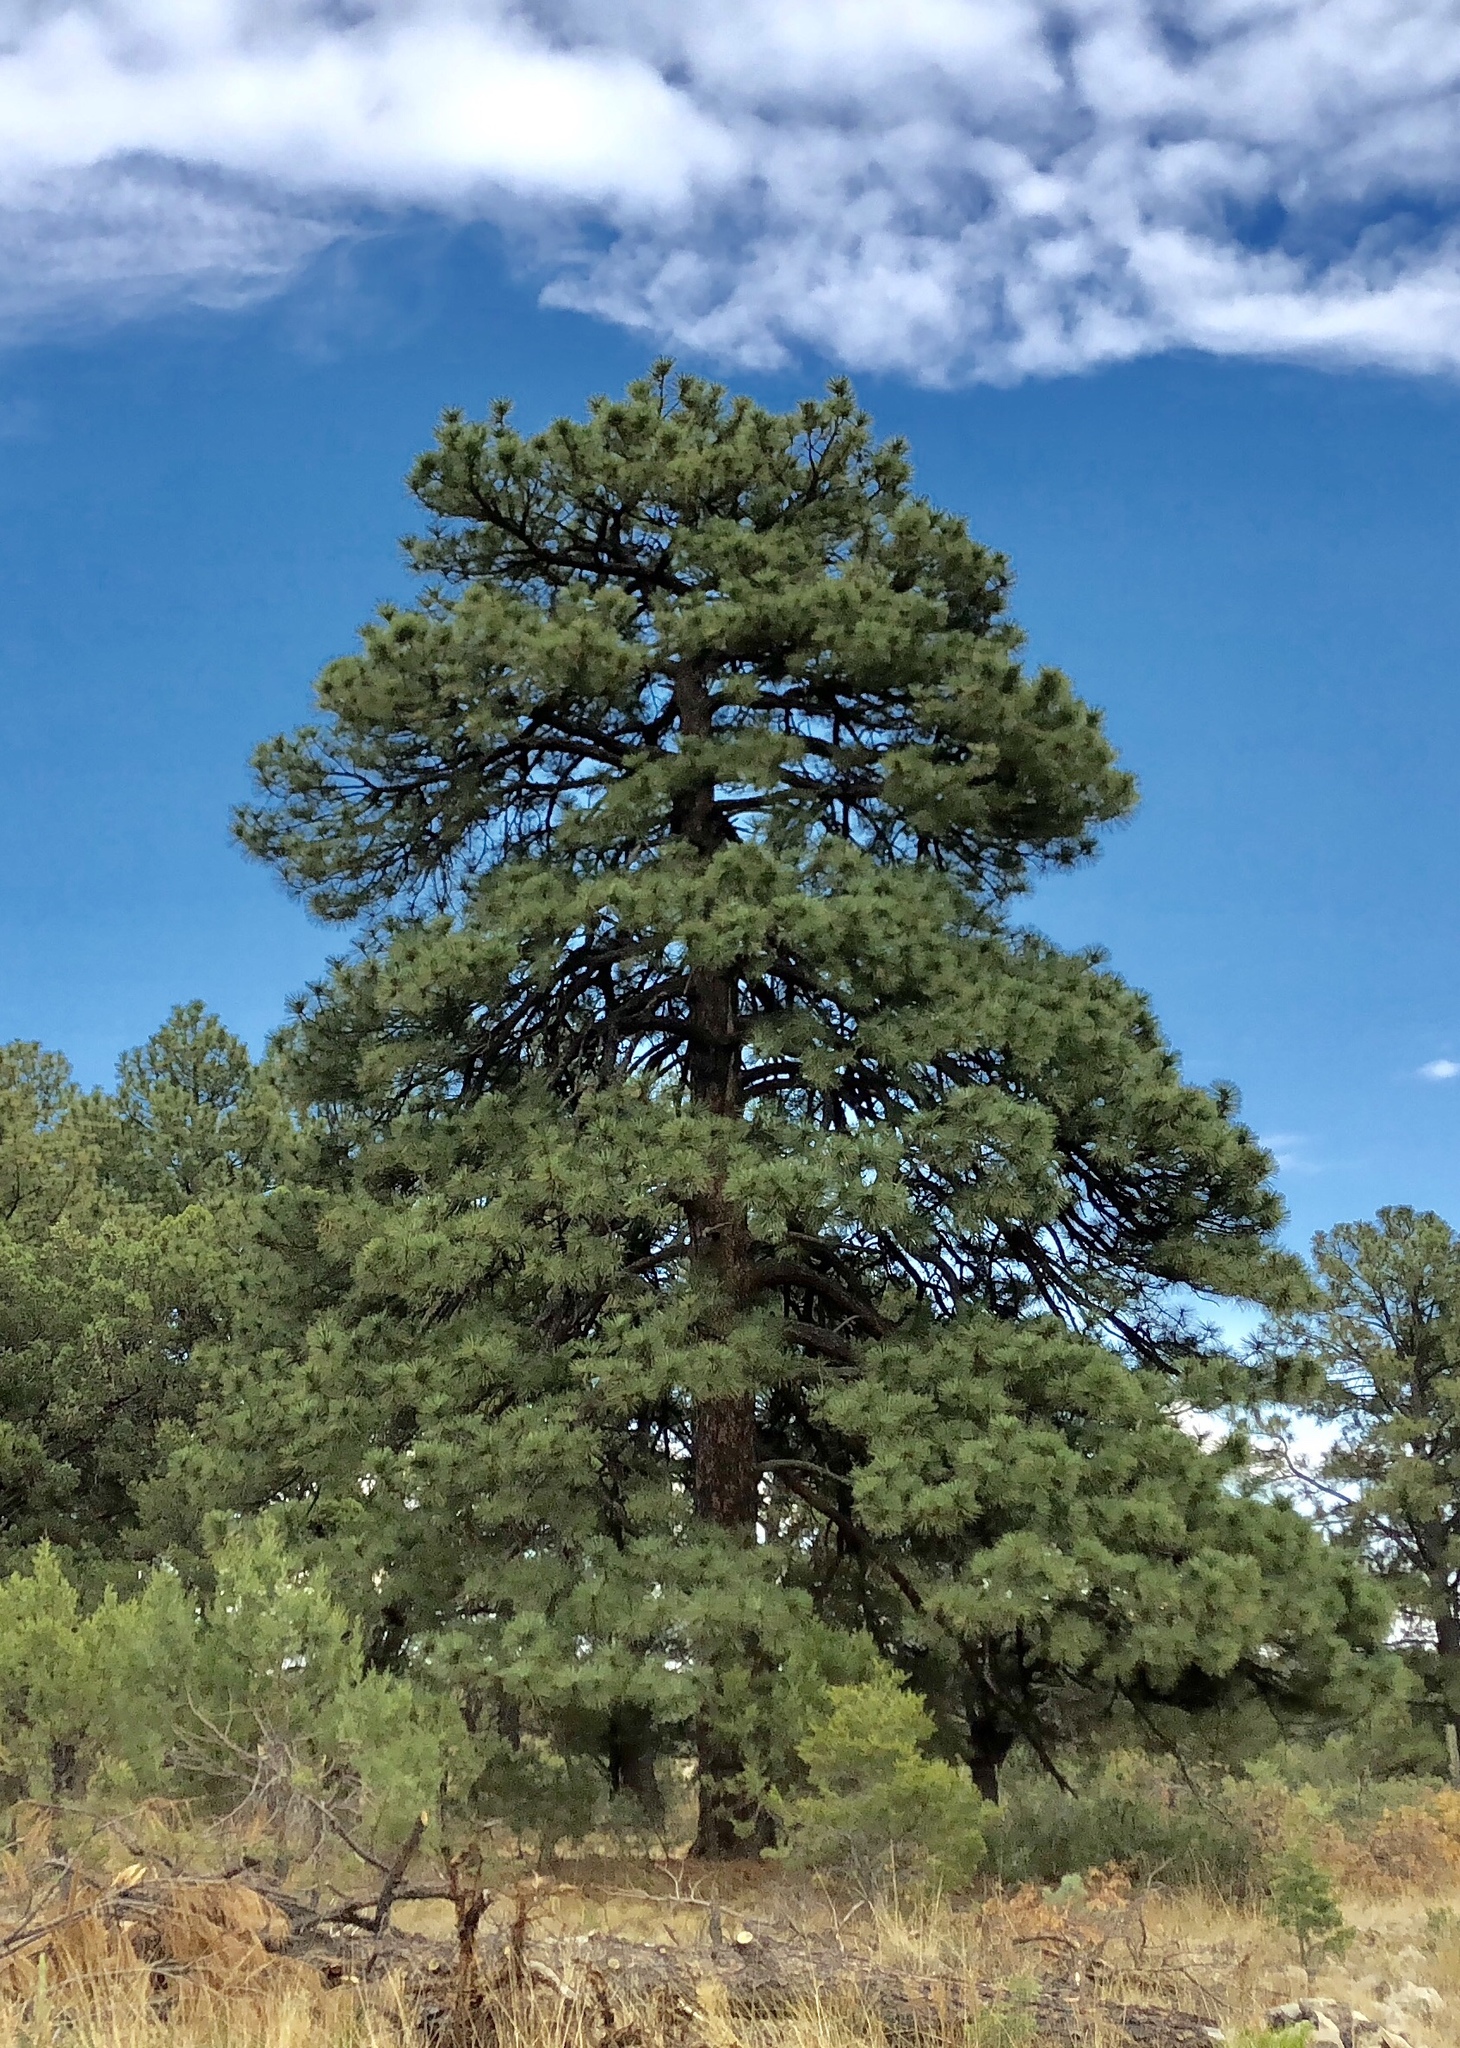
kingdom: Plantae
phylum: Tracheophyta
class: Pinopsida
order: Pinales
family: Pinaceae
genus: Pinus
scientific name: Pinus ponderosa
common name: Western yellow-pine
